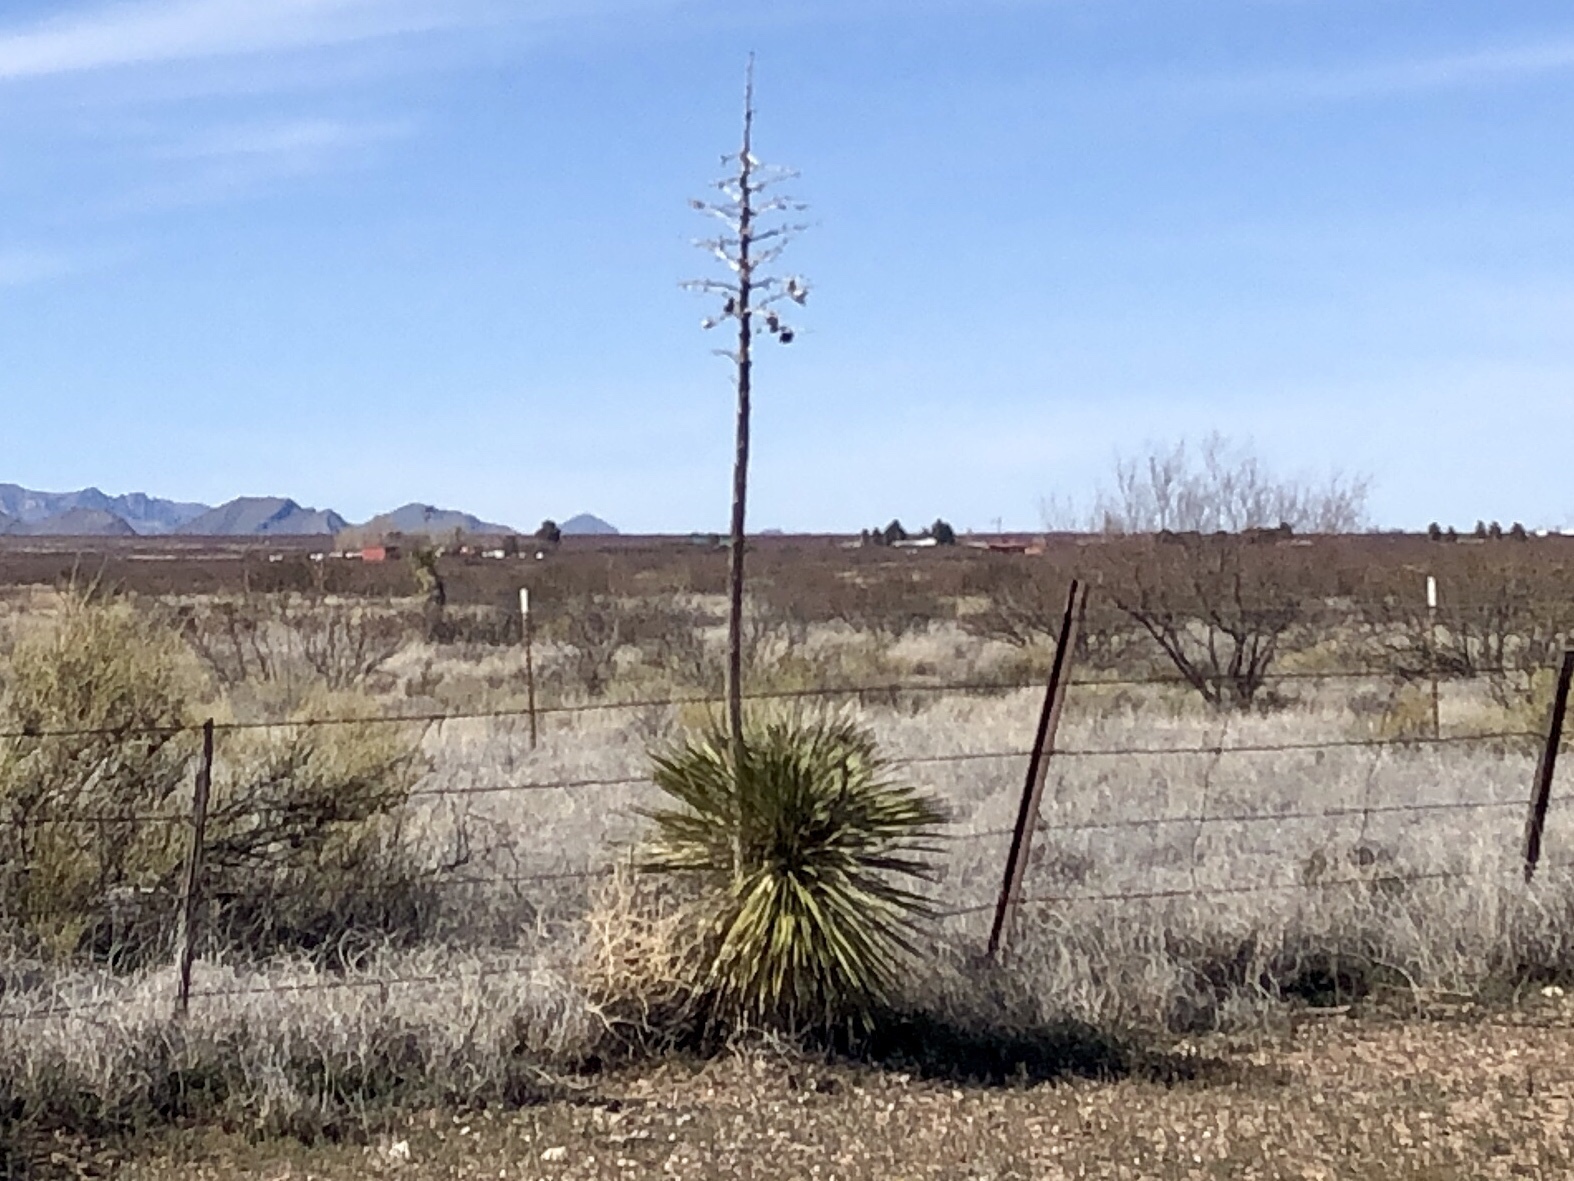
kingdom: Plantae
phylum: Tracheophyta
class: Liliopsida
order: Asparagales
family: Asparagaceae
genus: Yucca
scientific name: Yucca elata
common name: Palmella
